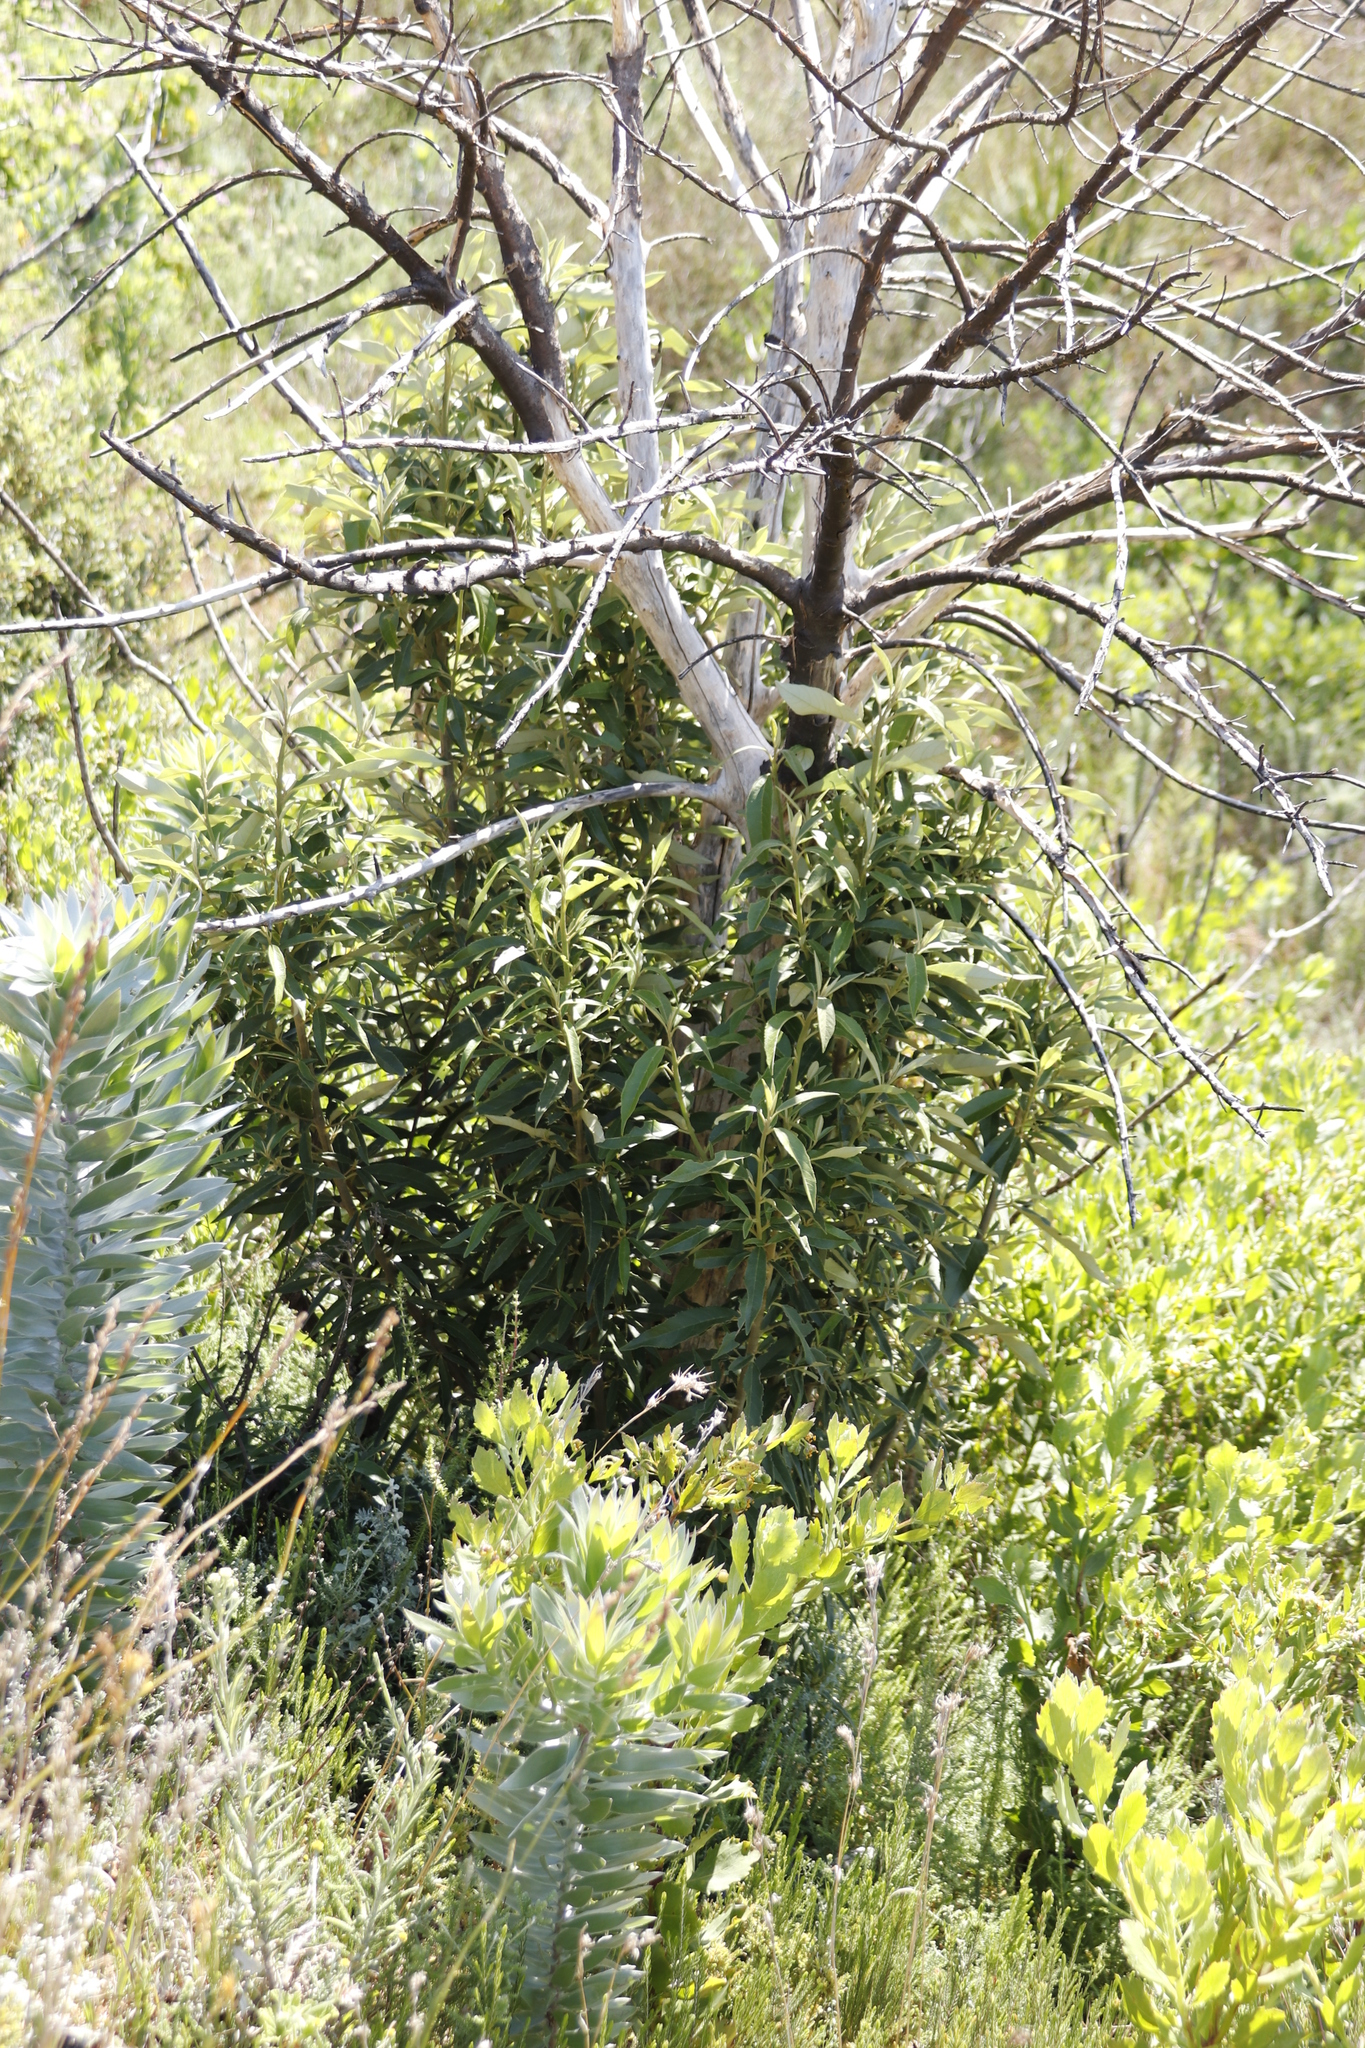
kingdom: Plantae
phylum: Tracheophyta
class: Magnoliopsida
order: Malpighiales
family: Achariaceae
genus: Kiggelaria
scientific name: Kiggelaria africana
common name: Wild peach
